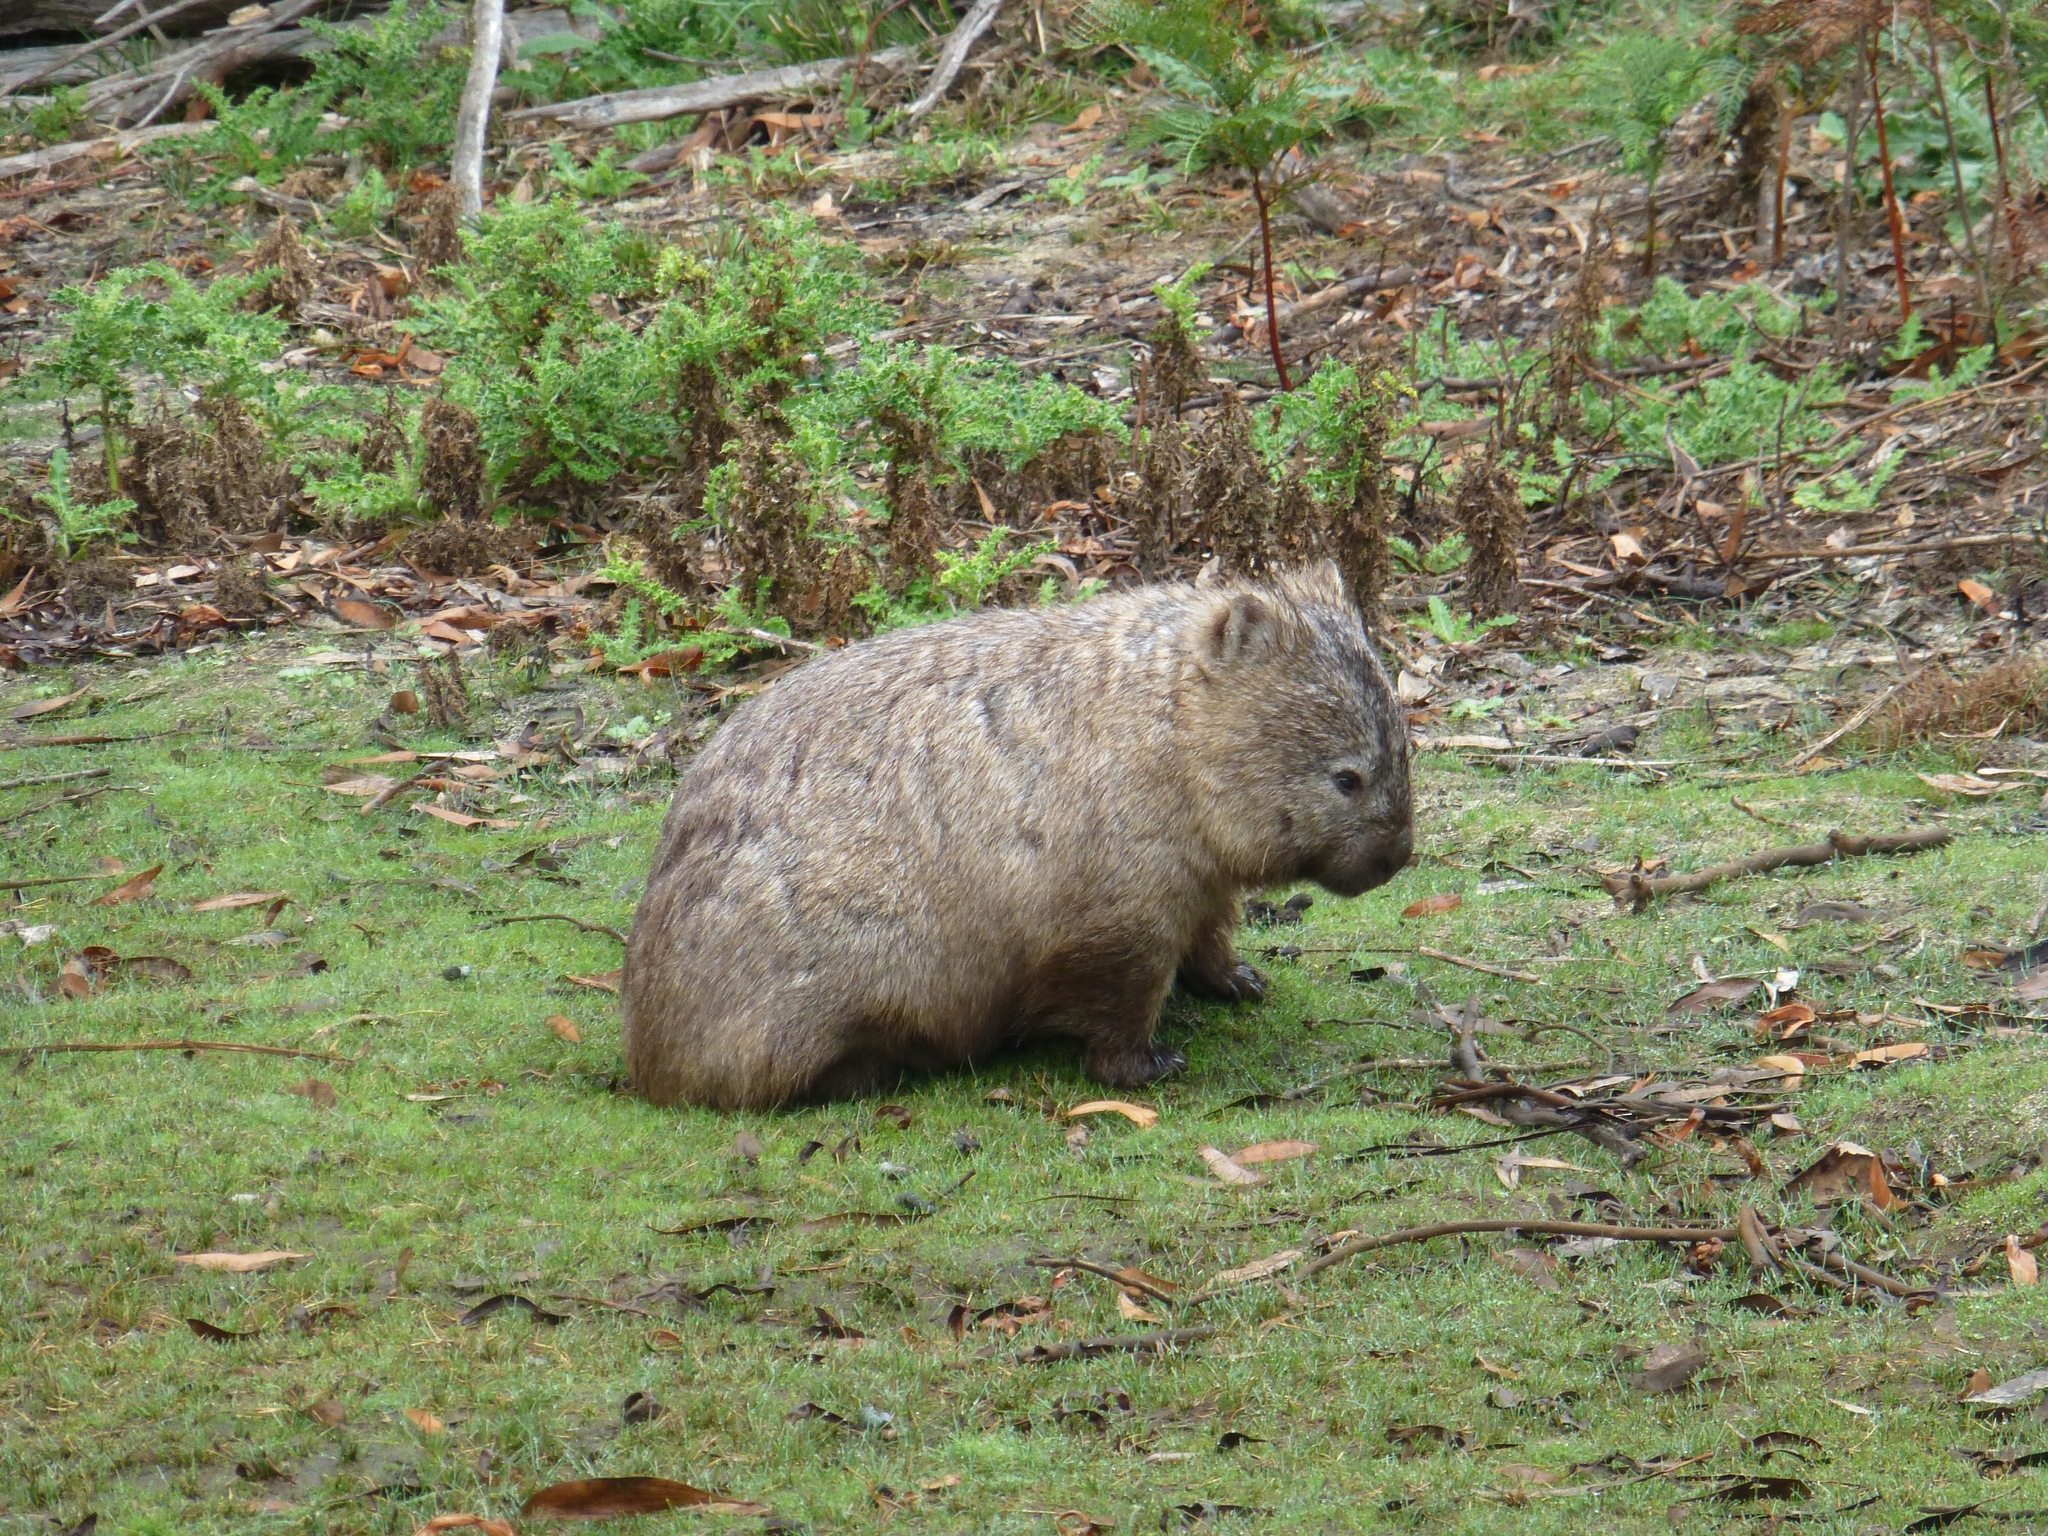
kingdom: Animalia
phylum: Chordata
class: Mammalia
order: Diprotodontia
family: Vombatidae
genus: Vombatus
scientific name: Vombatus ursinus
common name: Common wombat
